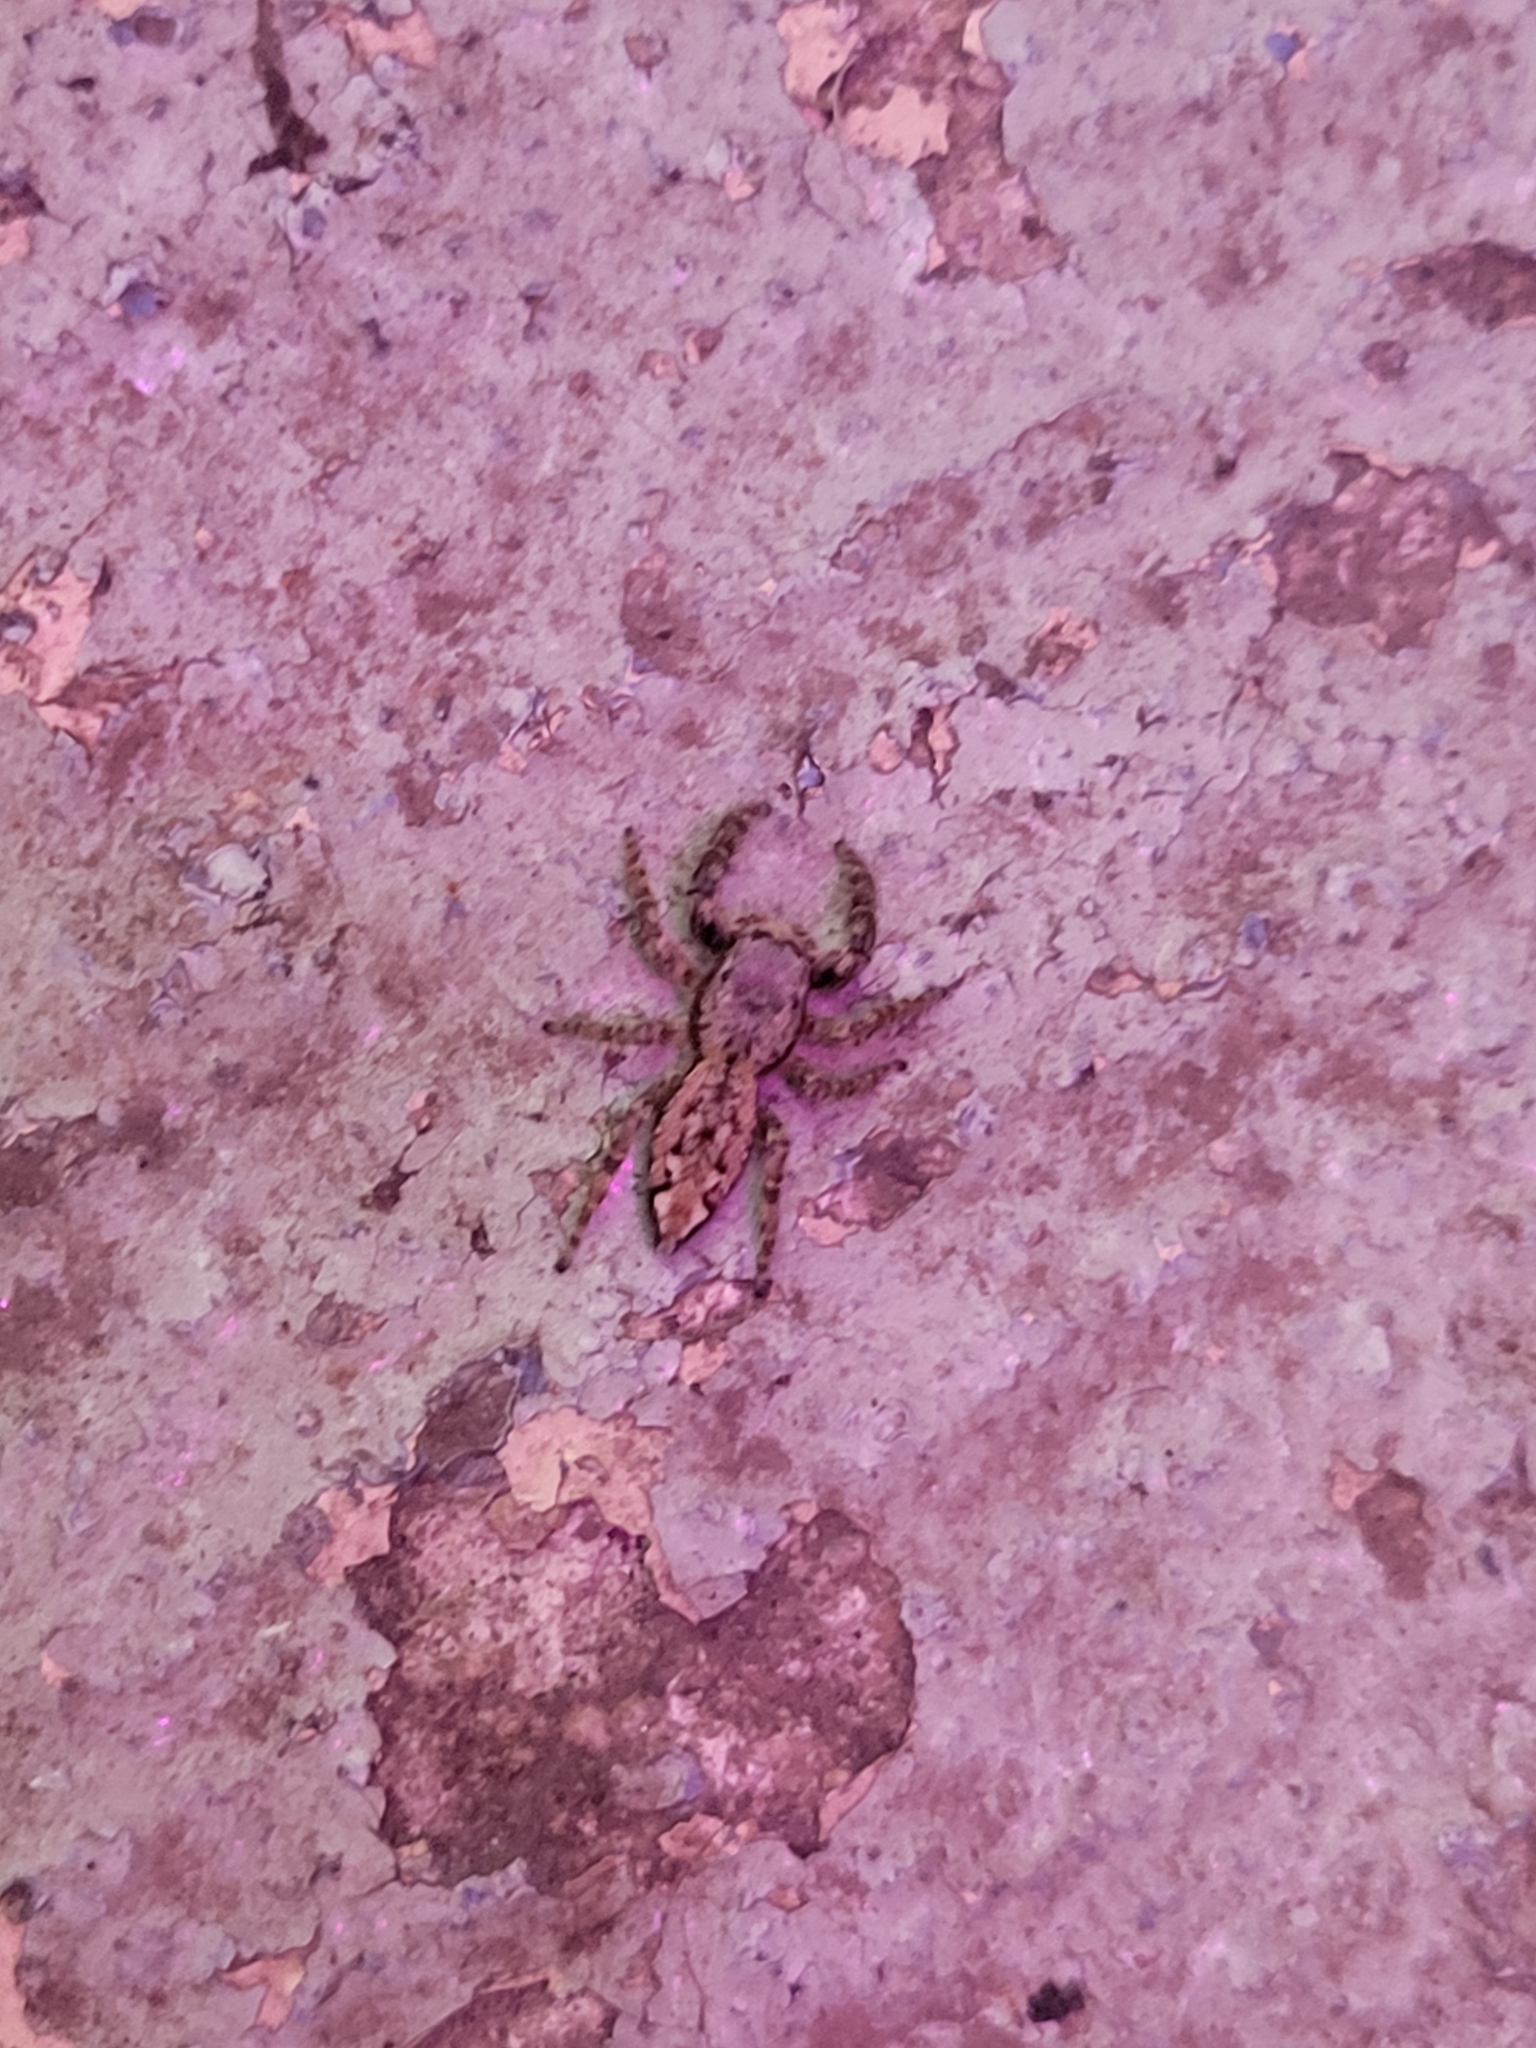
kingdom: Animalia
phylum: Arthropoda
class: Arachnida
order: Araneae
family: Salticidae
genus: Marpissa
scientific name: Marpissa muscosa
